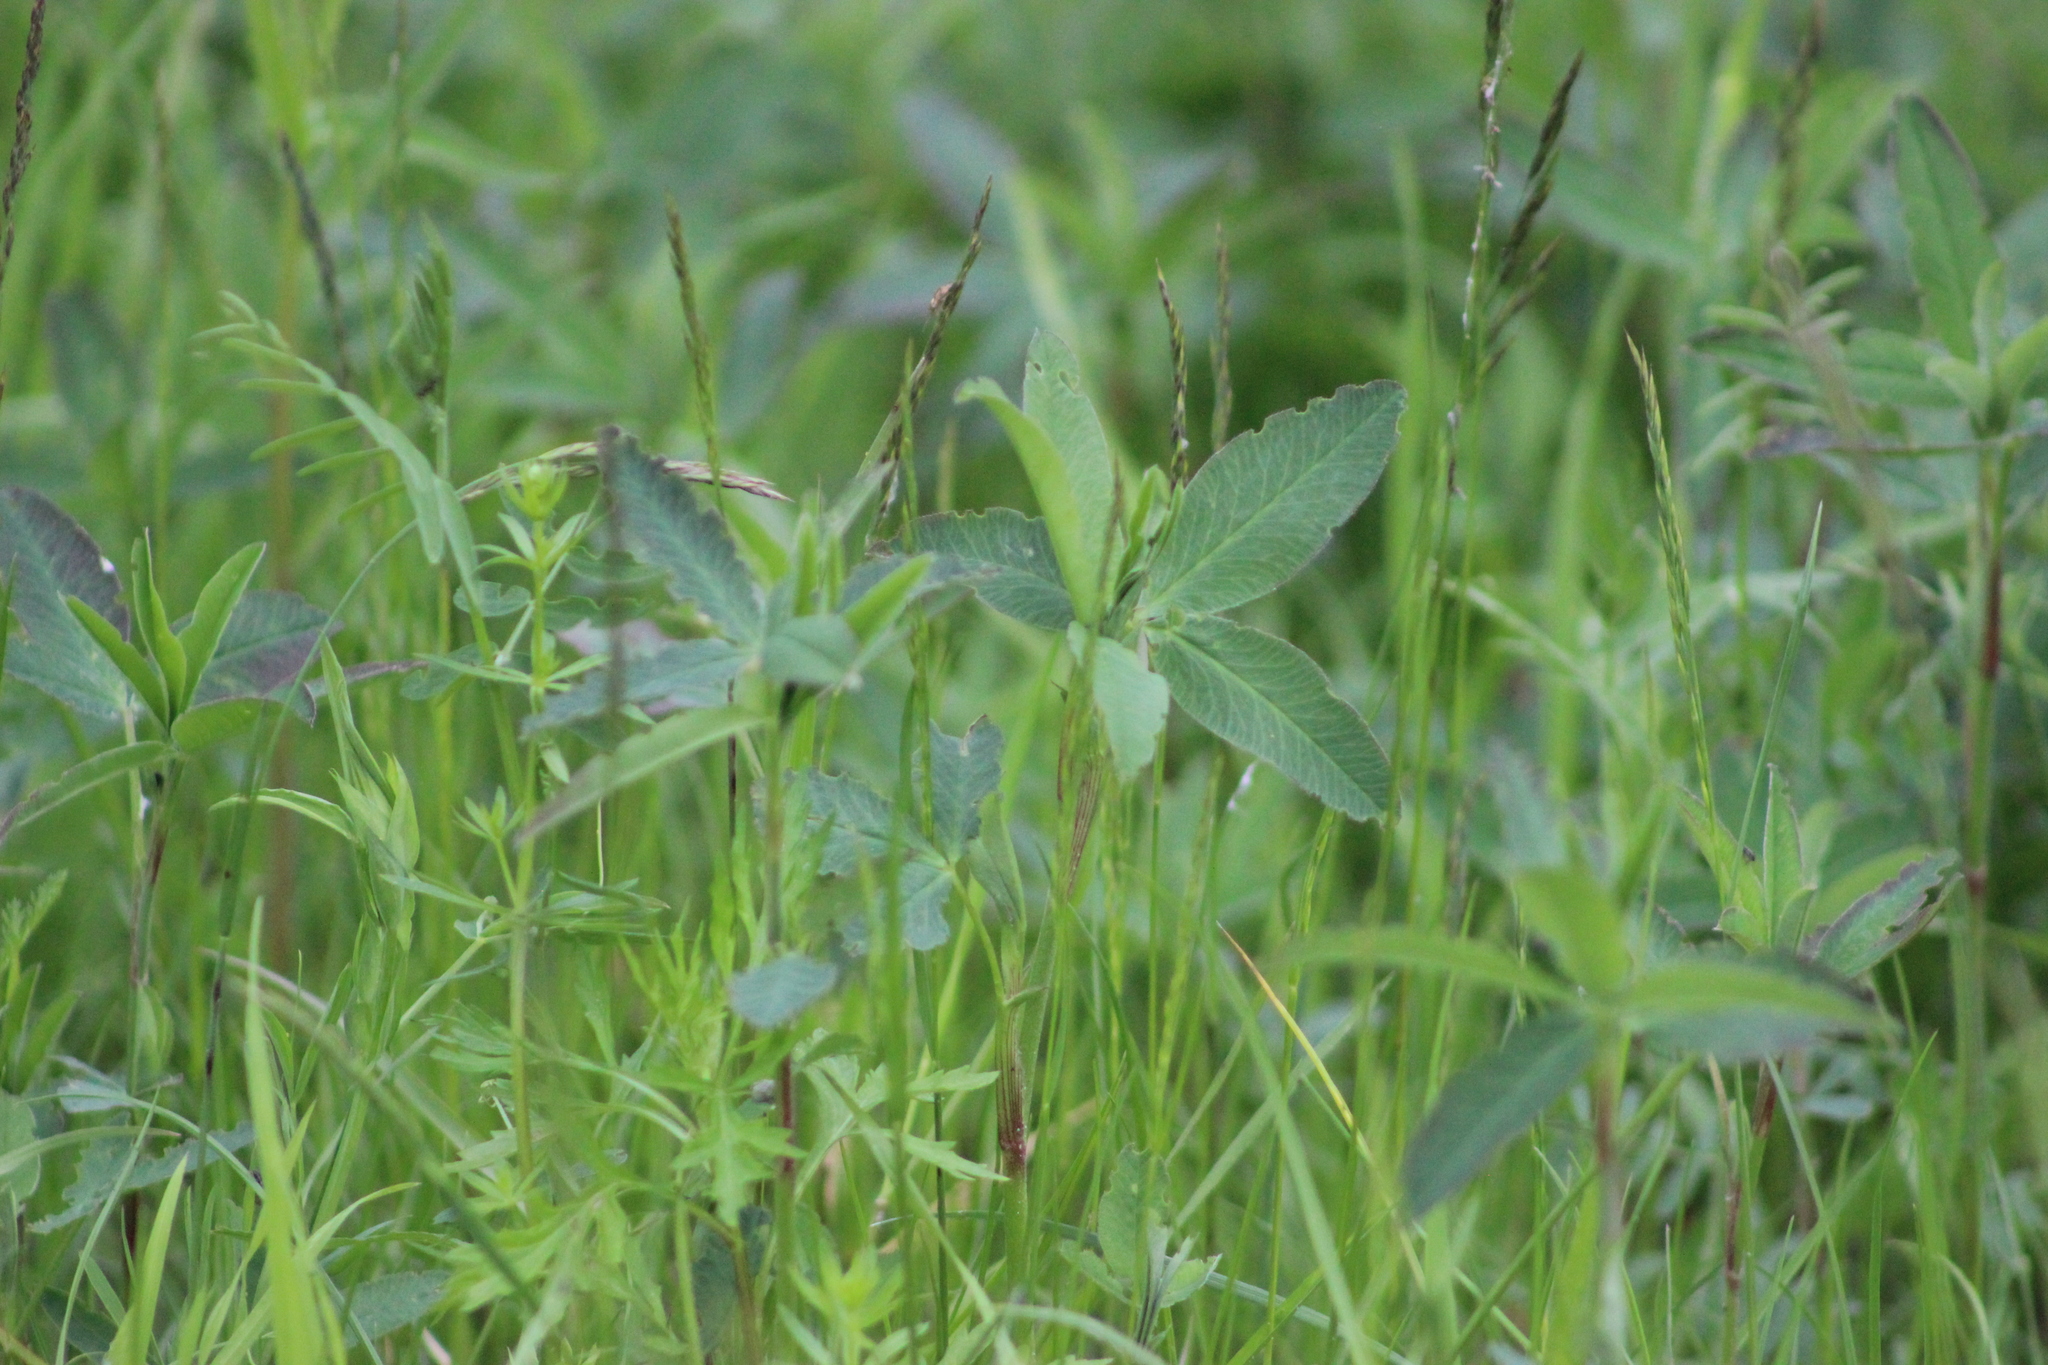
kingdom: Plantae
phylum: Tracheophyta
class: Magnoliopsida
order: Rosales
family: Rosaceae
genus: Comarum
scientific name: Comarum palustre
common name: Marsh cinquefoil
